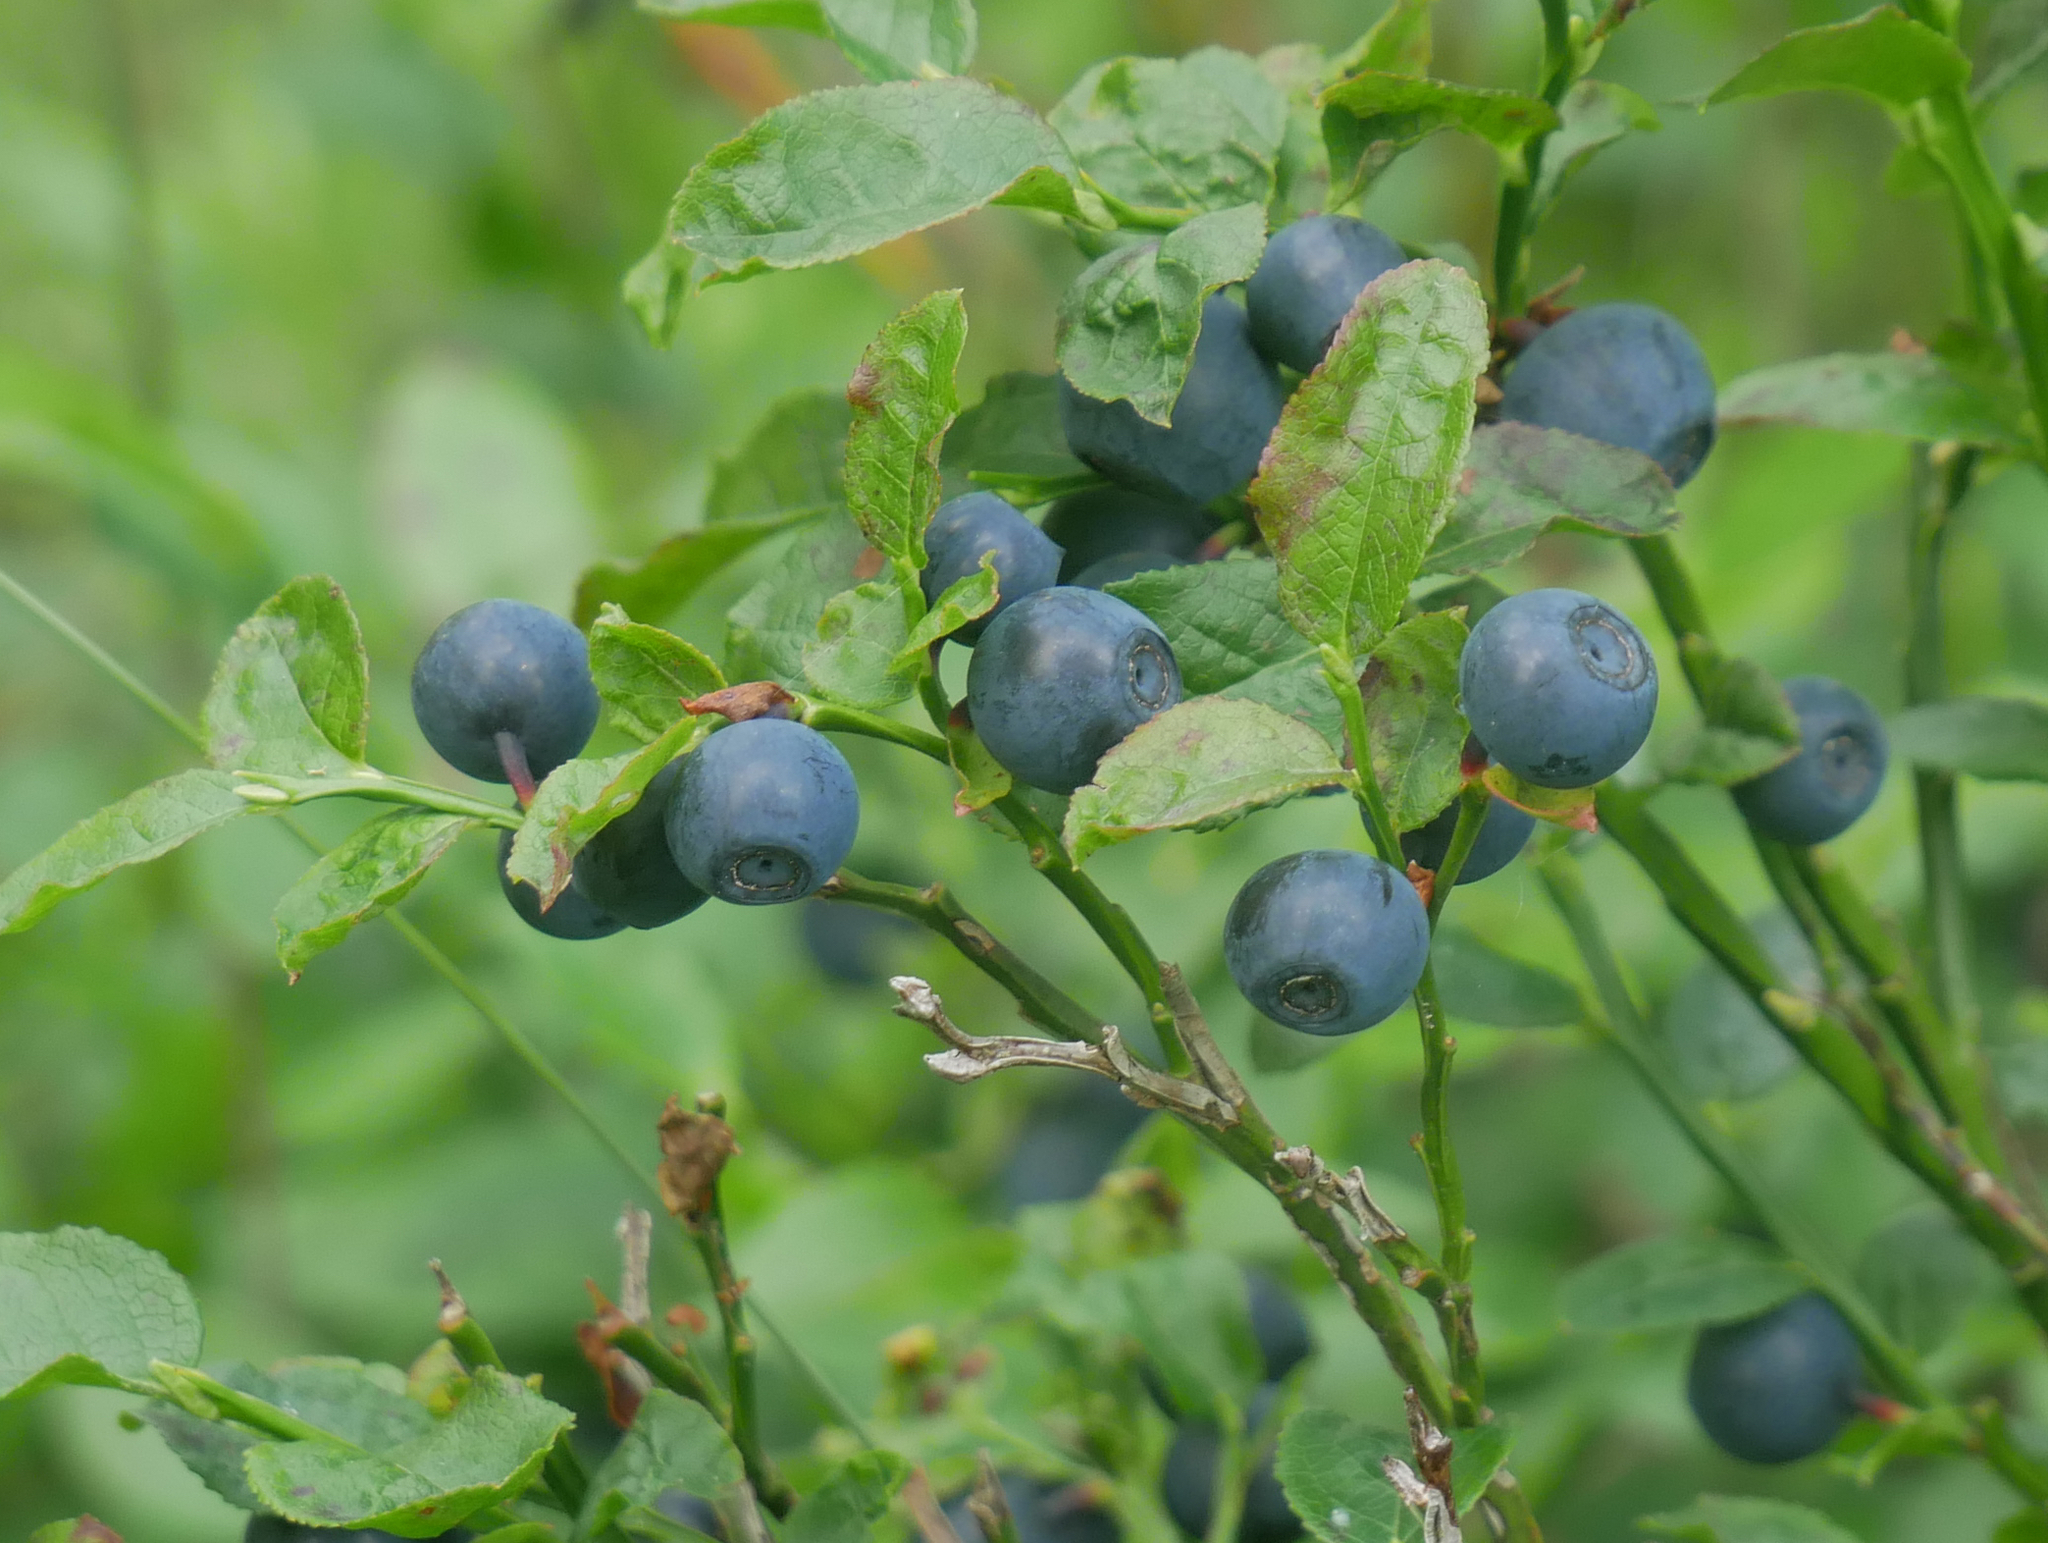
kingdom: Plantae
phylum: Tracheophyta
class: Magnoliopsida
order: Ericales
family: Ericaceae
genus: Vaccinium
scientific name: Vaccinium myrtillus
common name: Bilberry
